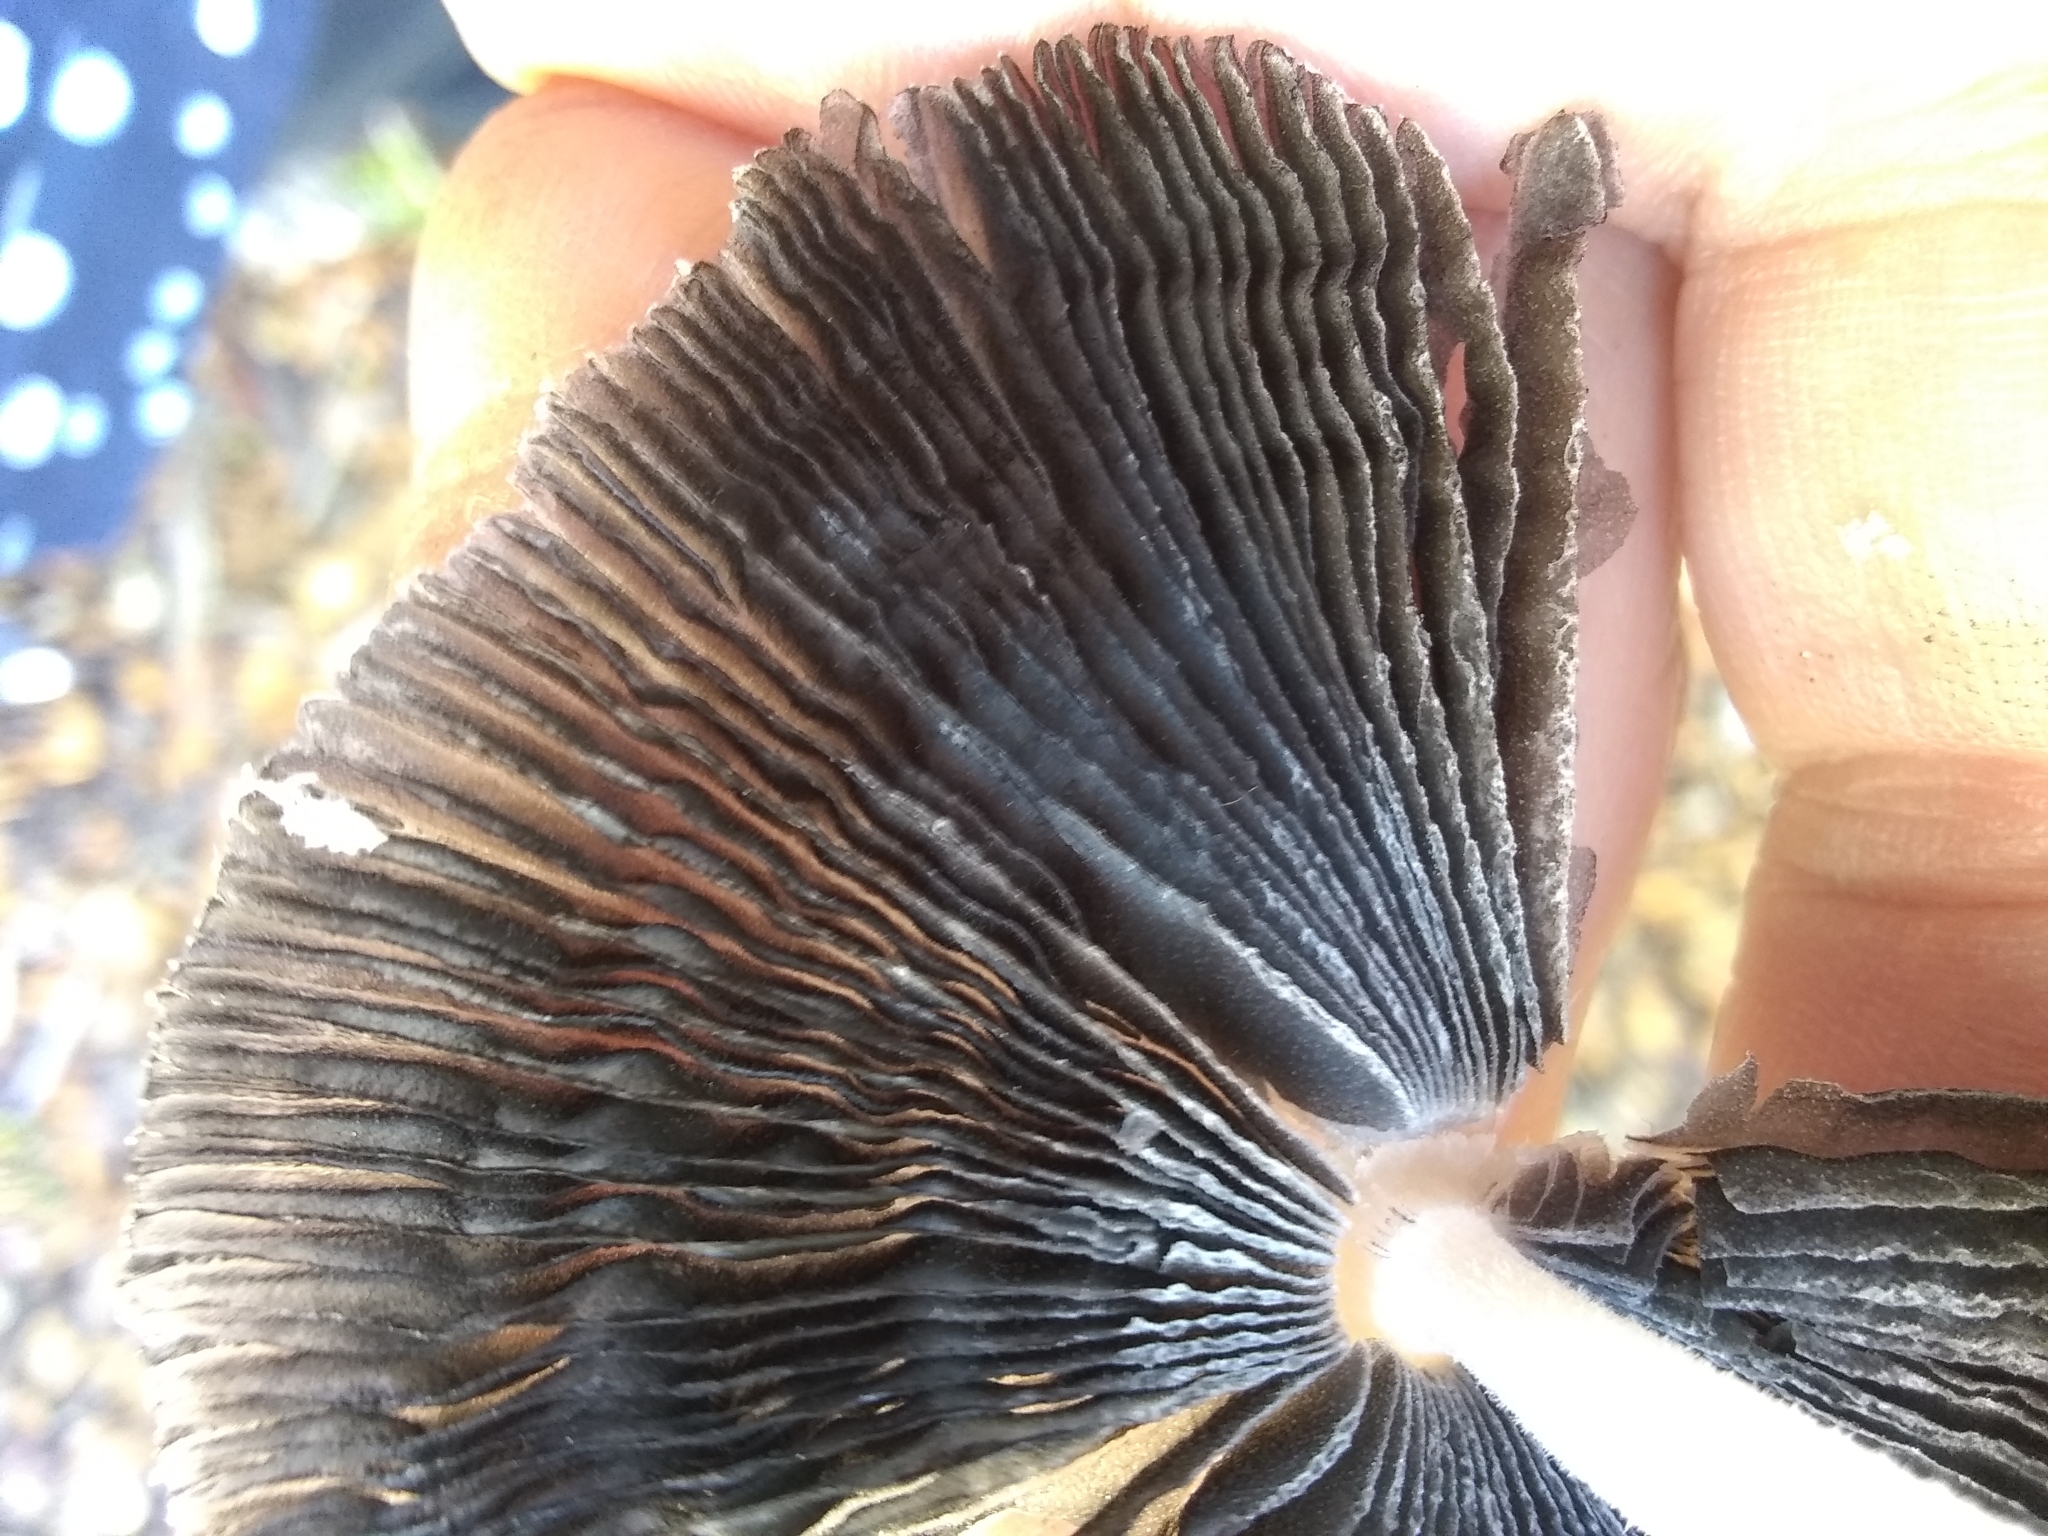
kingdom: Fungi
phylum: Basidiomycota
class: Agaricomycetes
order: Agaricales
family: Psathyrellaceae
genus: Coprinopsis
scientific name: Coprinopsis lagopus
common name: Hare'sfoot inkcap
